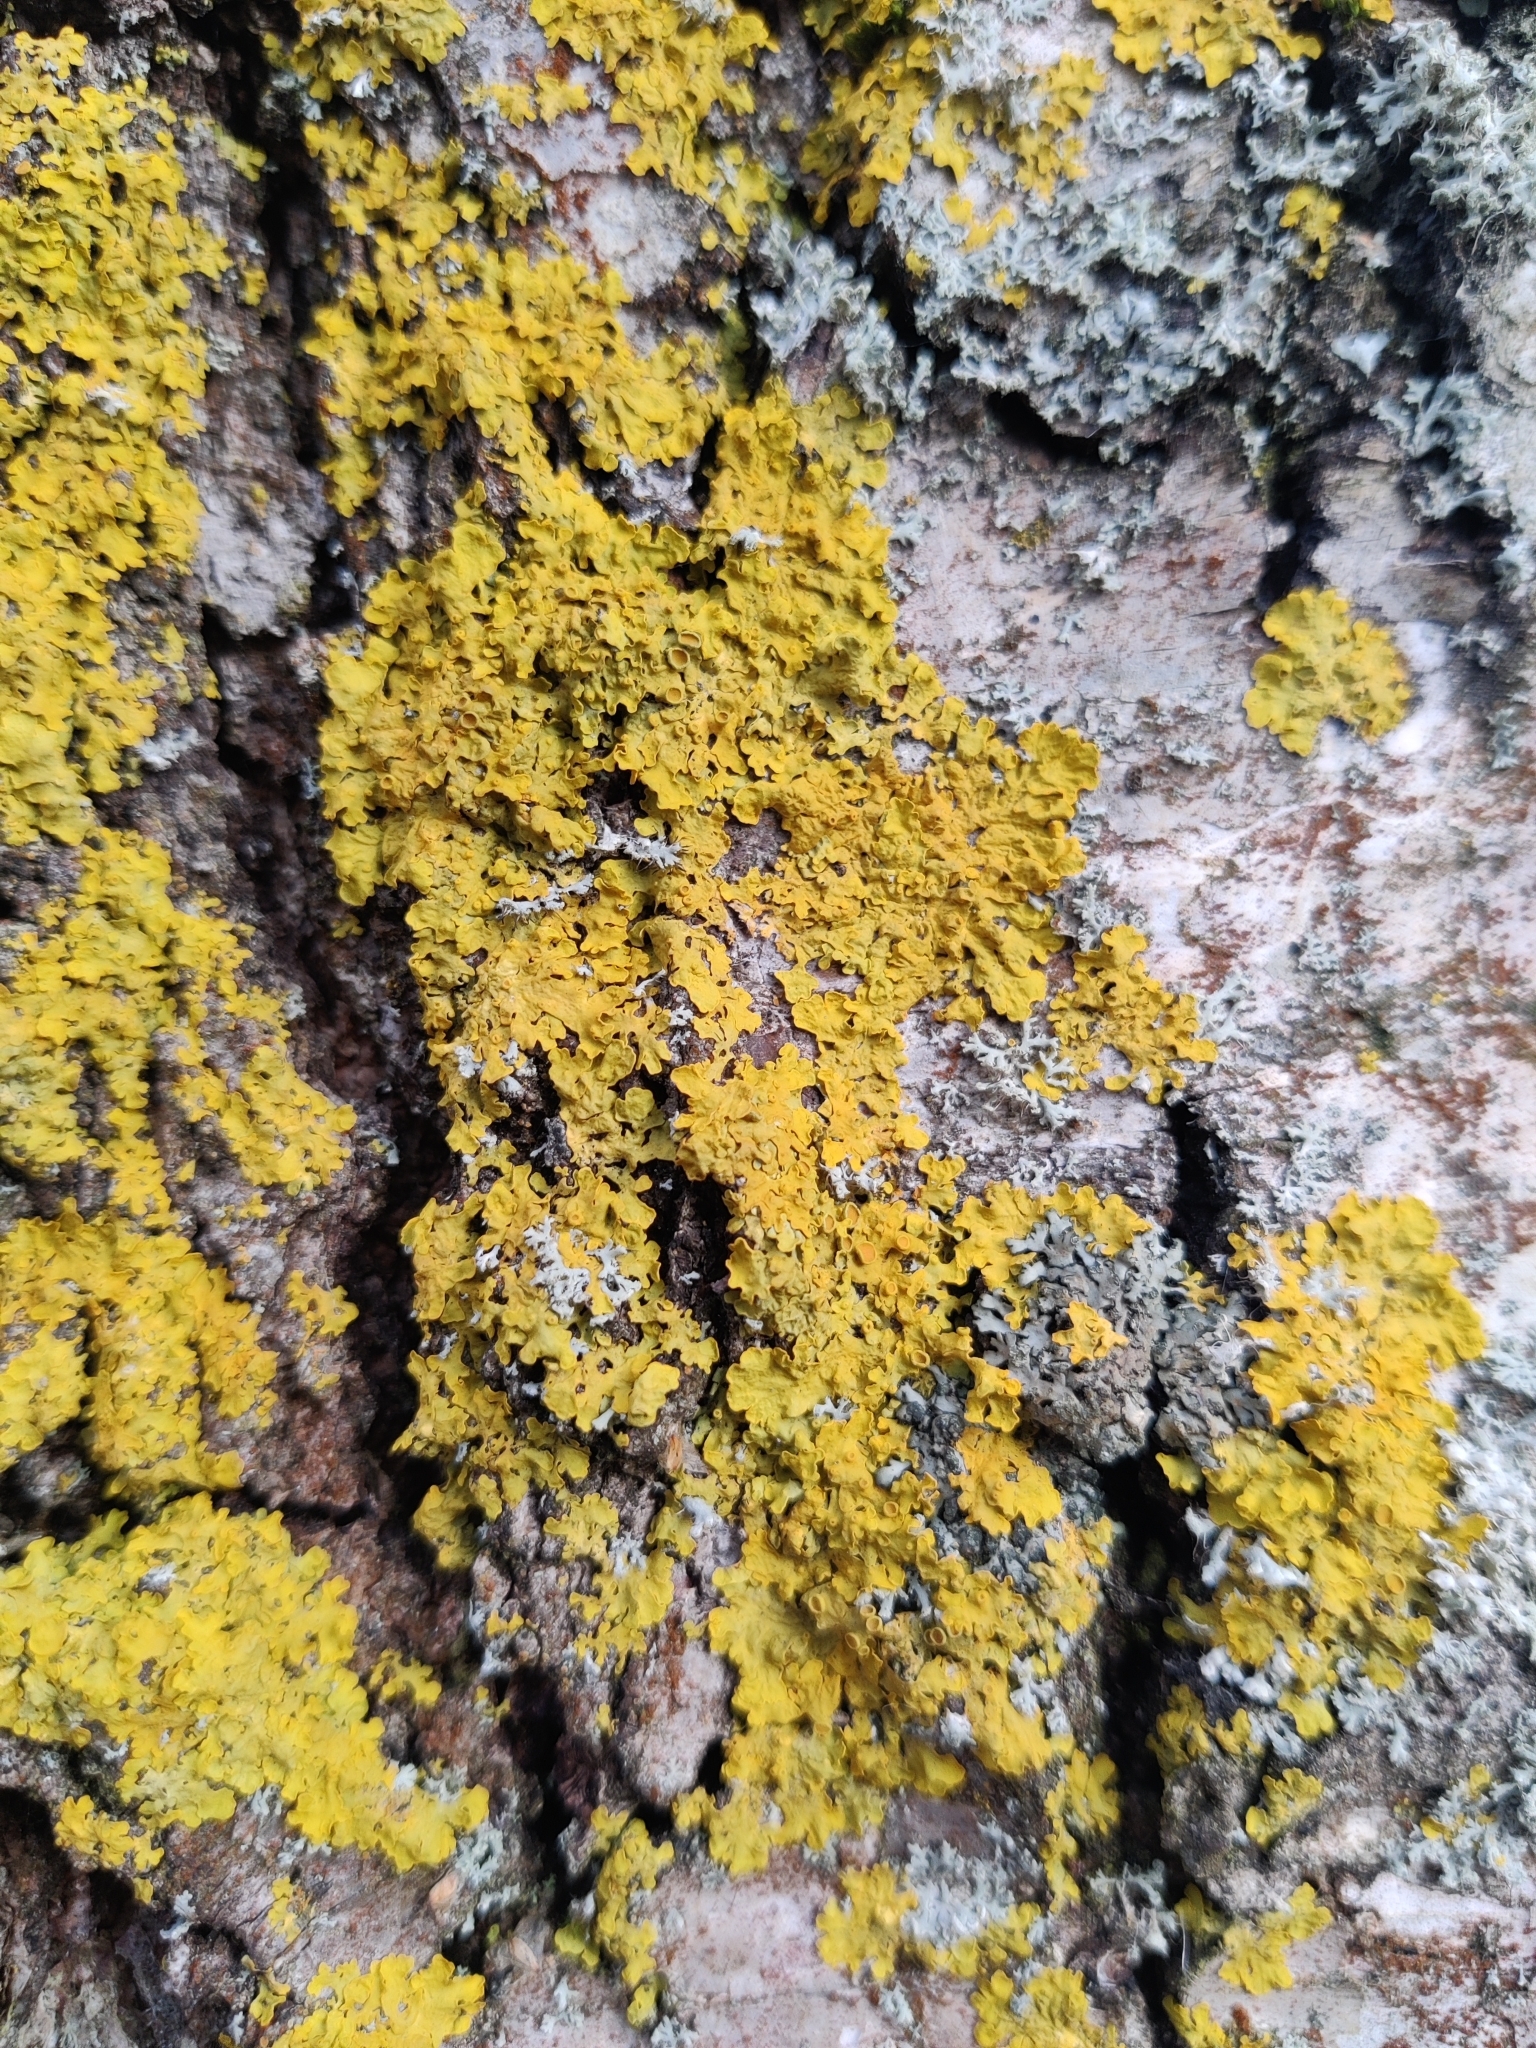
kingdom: Fungi
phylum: Ascomycota
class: Lecanoromycetes
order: Teloschistales
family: Teloschistaceae
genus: Xanthoria
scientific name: Xanthoria parietina
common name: Common orange lichen
